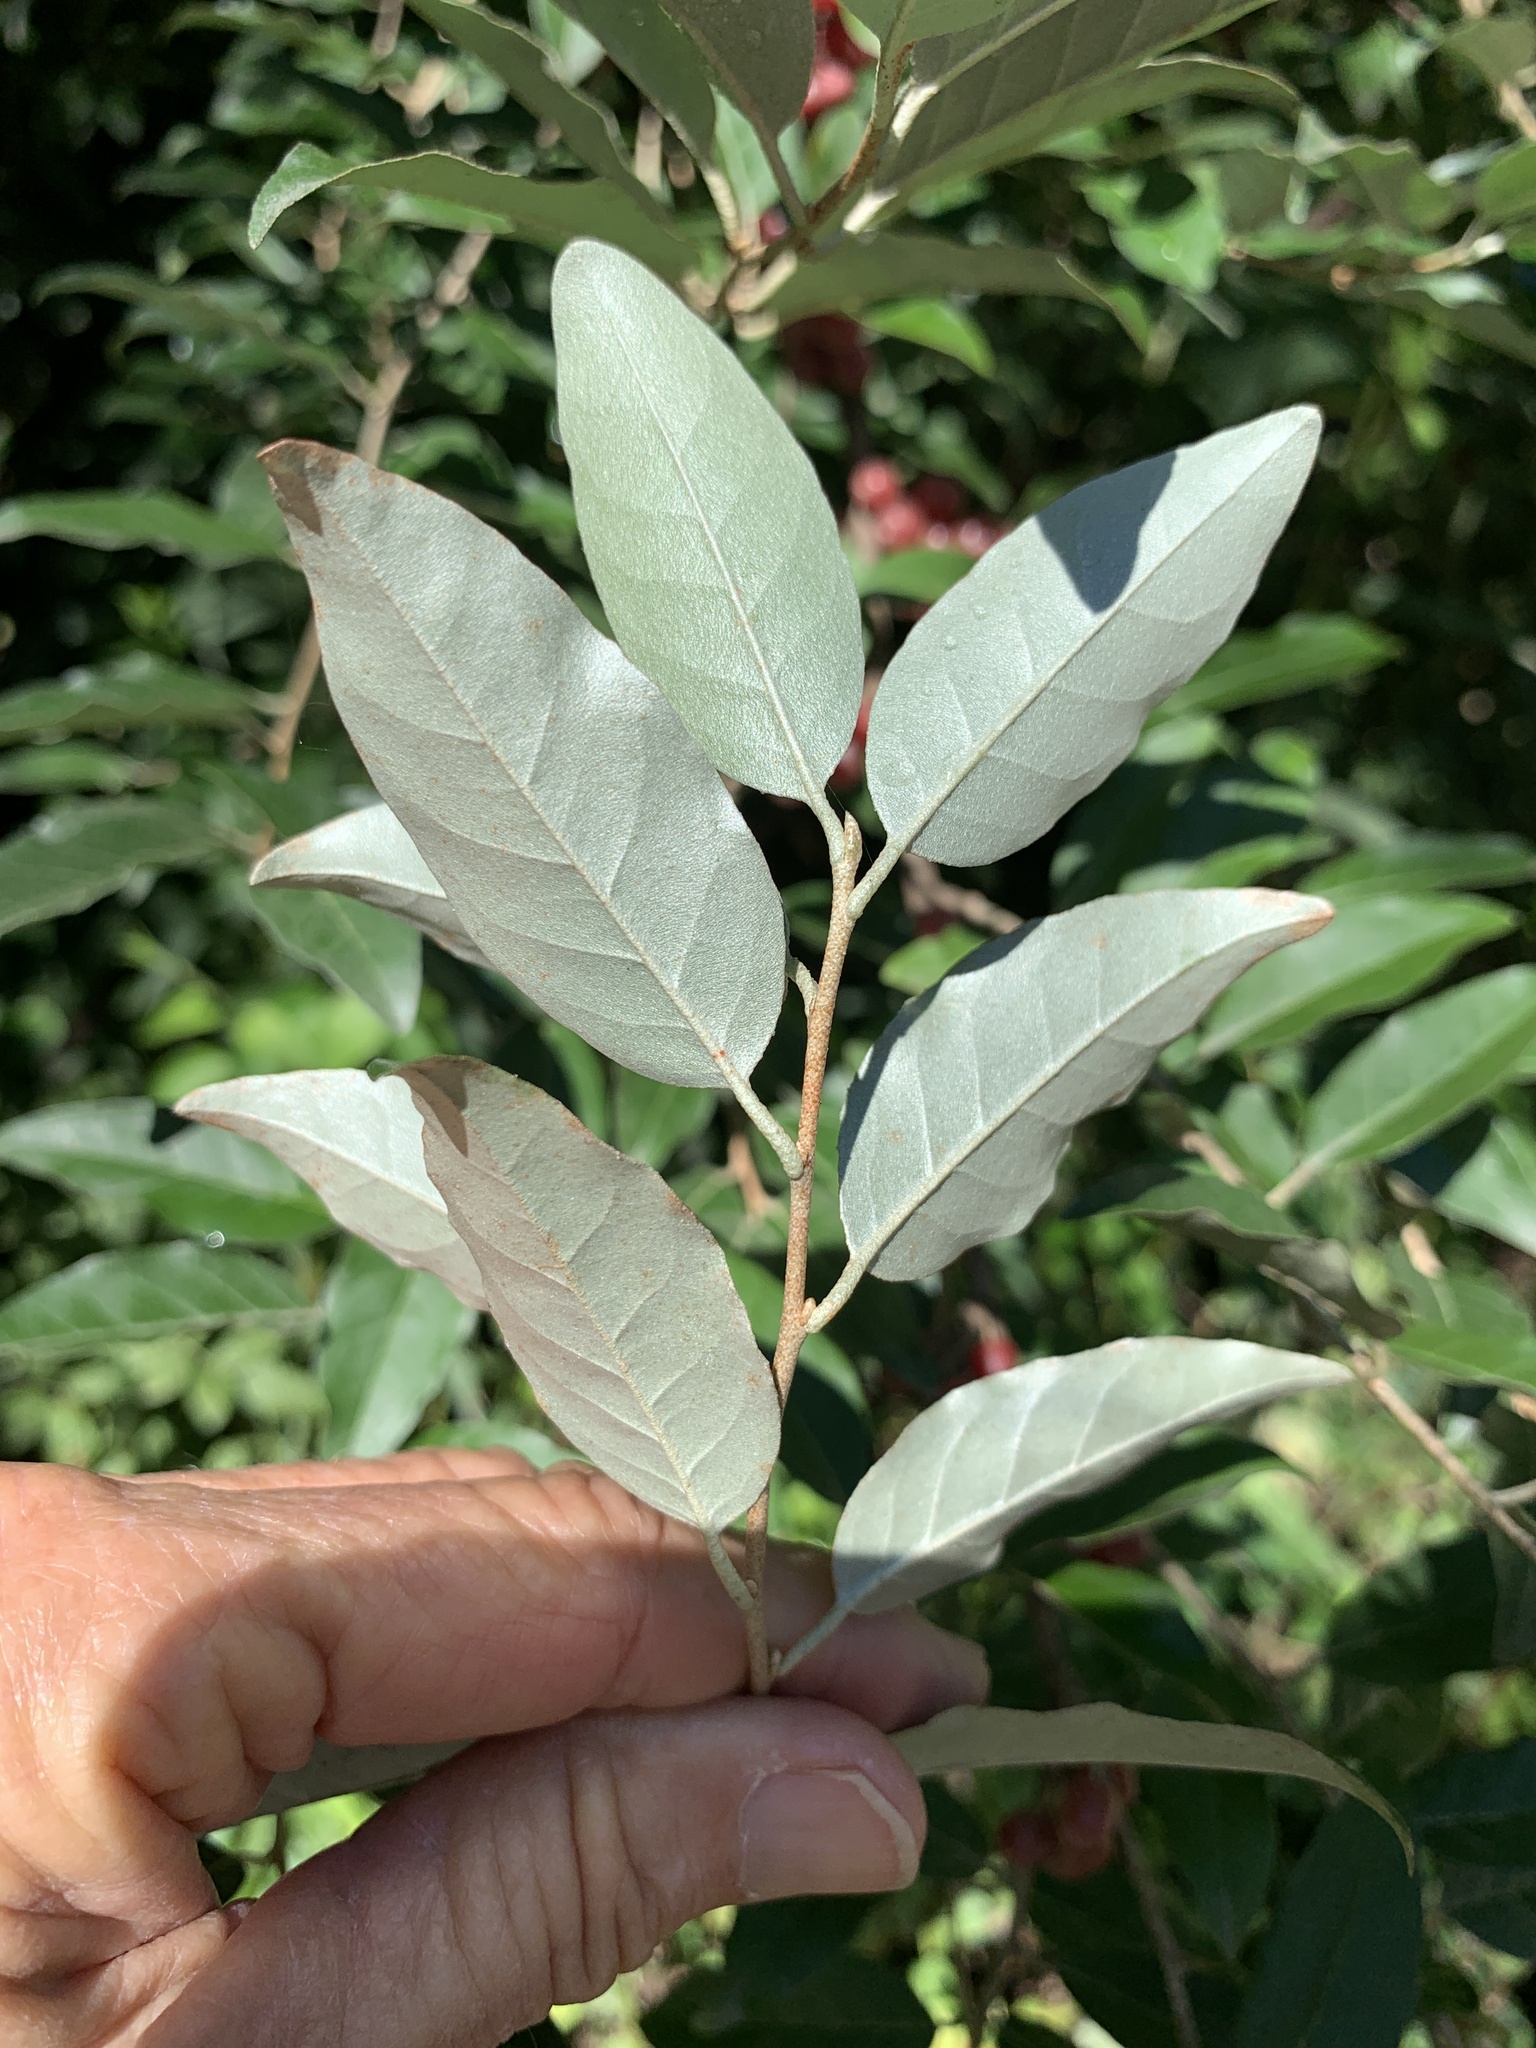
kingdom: Plantae
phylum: Tracheophyta
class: Magnoliopsida
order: Rosales
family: Elaeagnaceae
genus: Elaeagnus
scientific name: Elaeagnus umbellata
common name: Autumn olive
